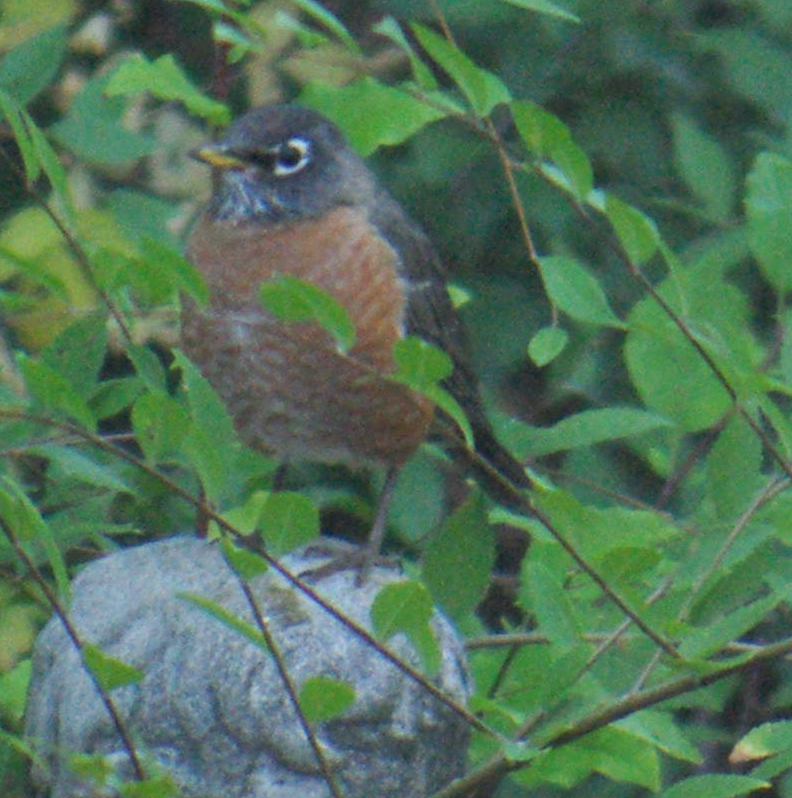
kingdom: Animalia
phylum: Chordata
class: Aves
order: Passeriformes
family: Turdidae
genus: Turdus
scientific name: Turdus migratorius
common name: American robin
